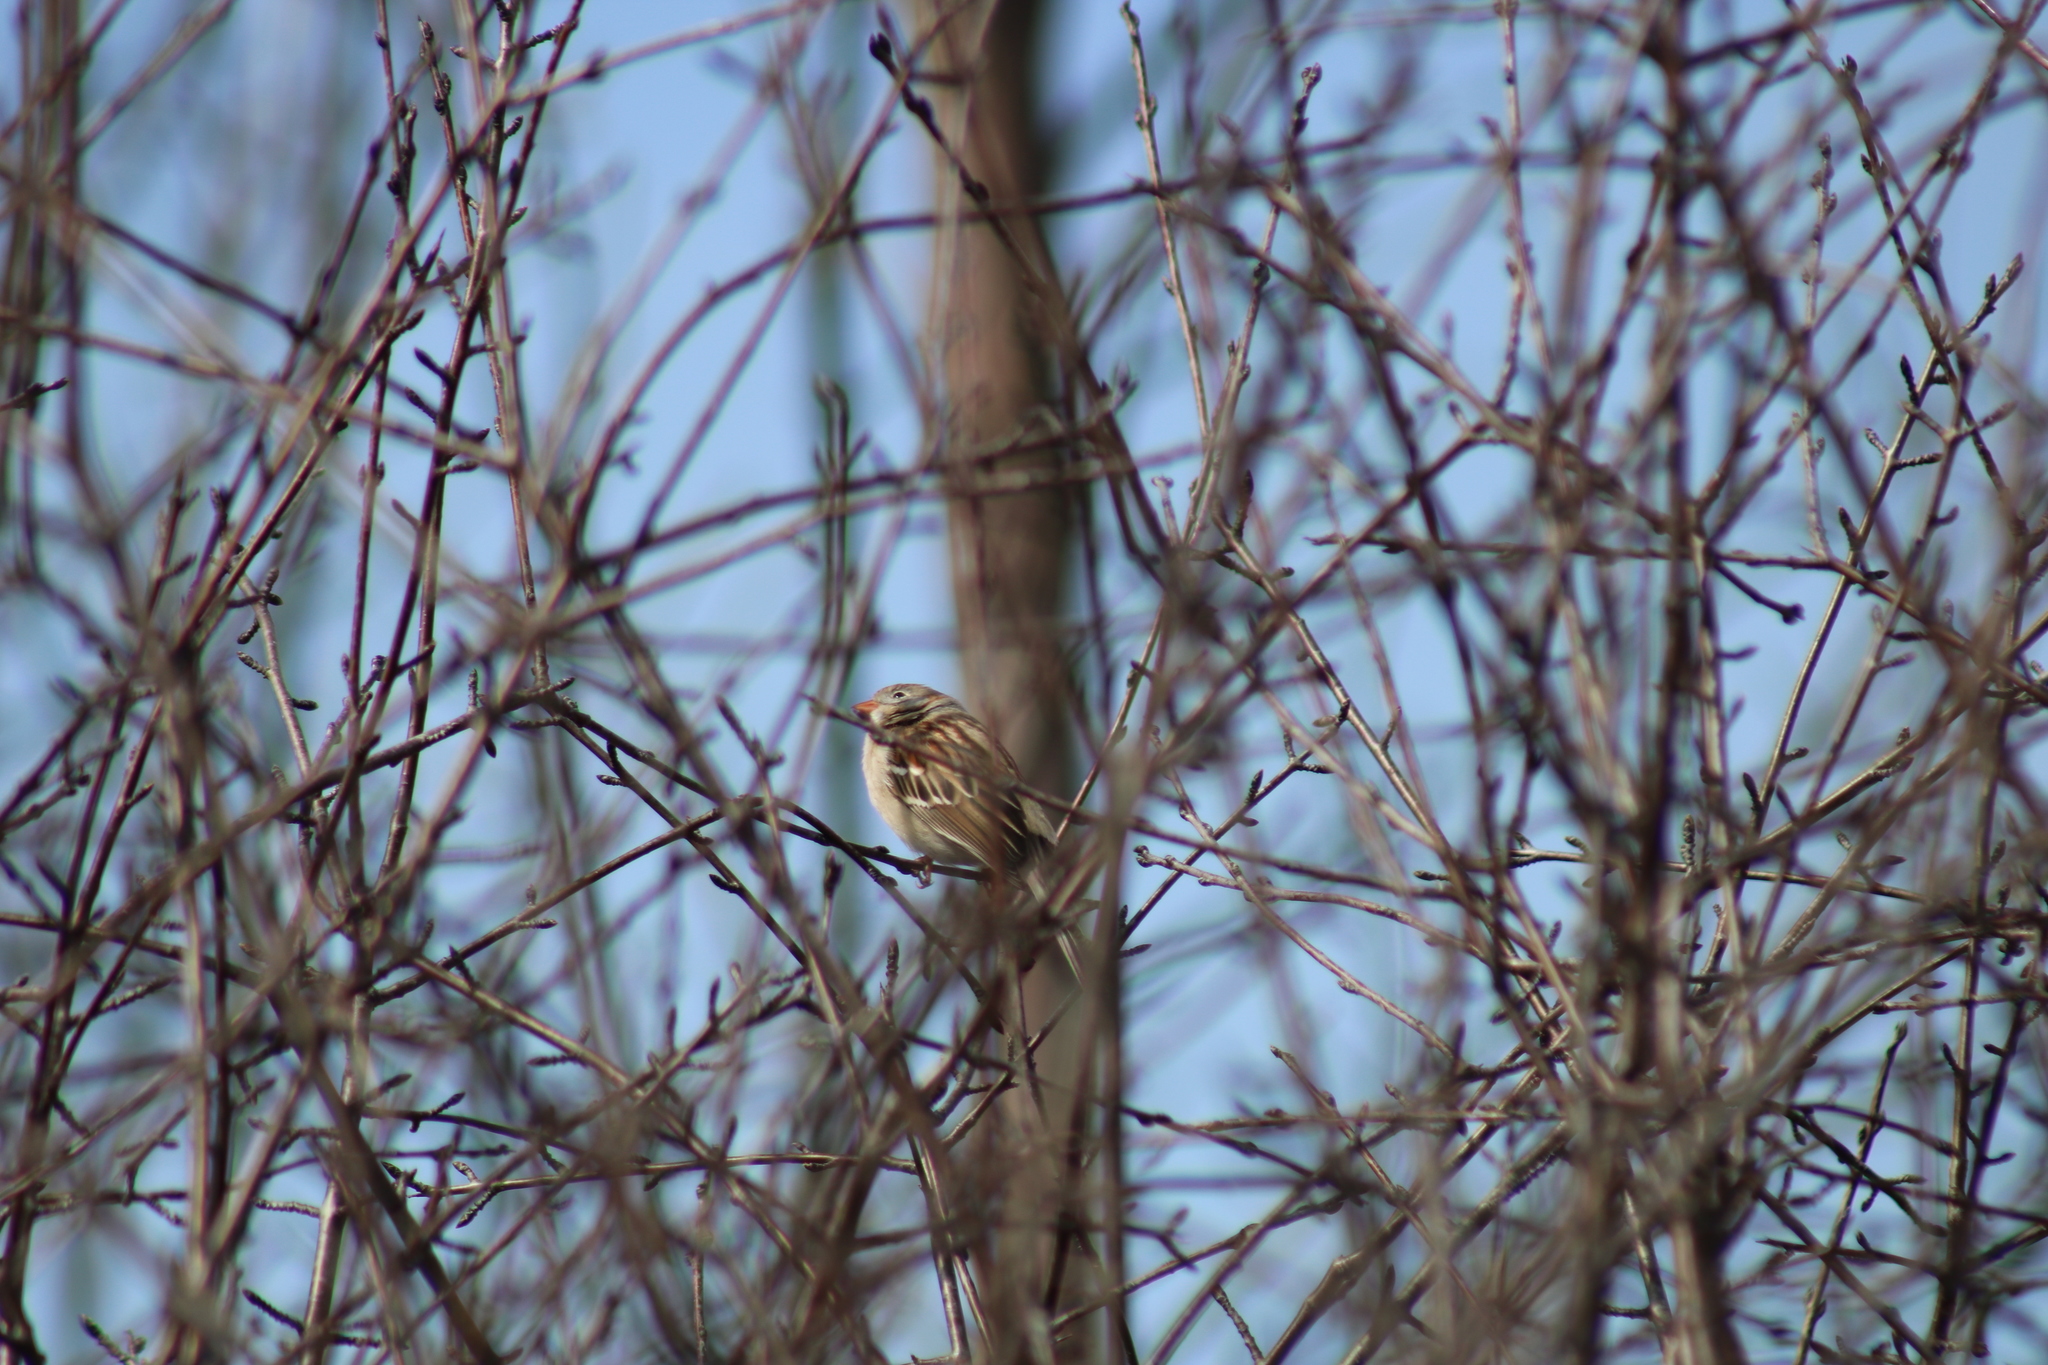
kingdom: Animalia
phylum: Chordata
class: Aves
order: Passeriformes
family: Passerellidae
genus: Spizella
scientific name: Spizella pusilla
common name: Field sparrow
